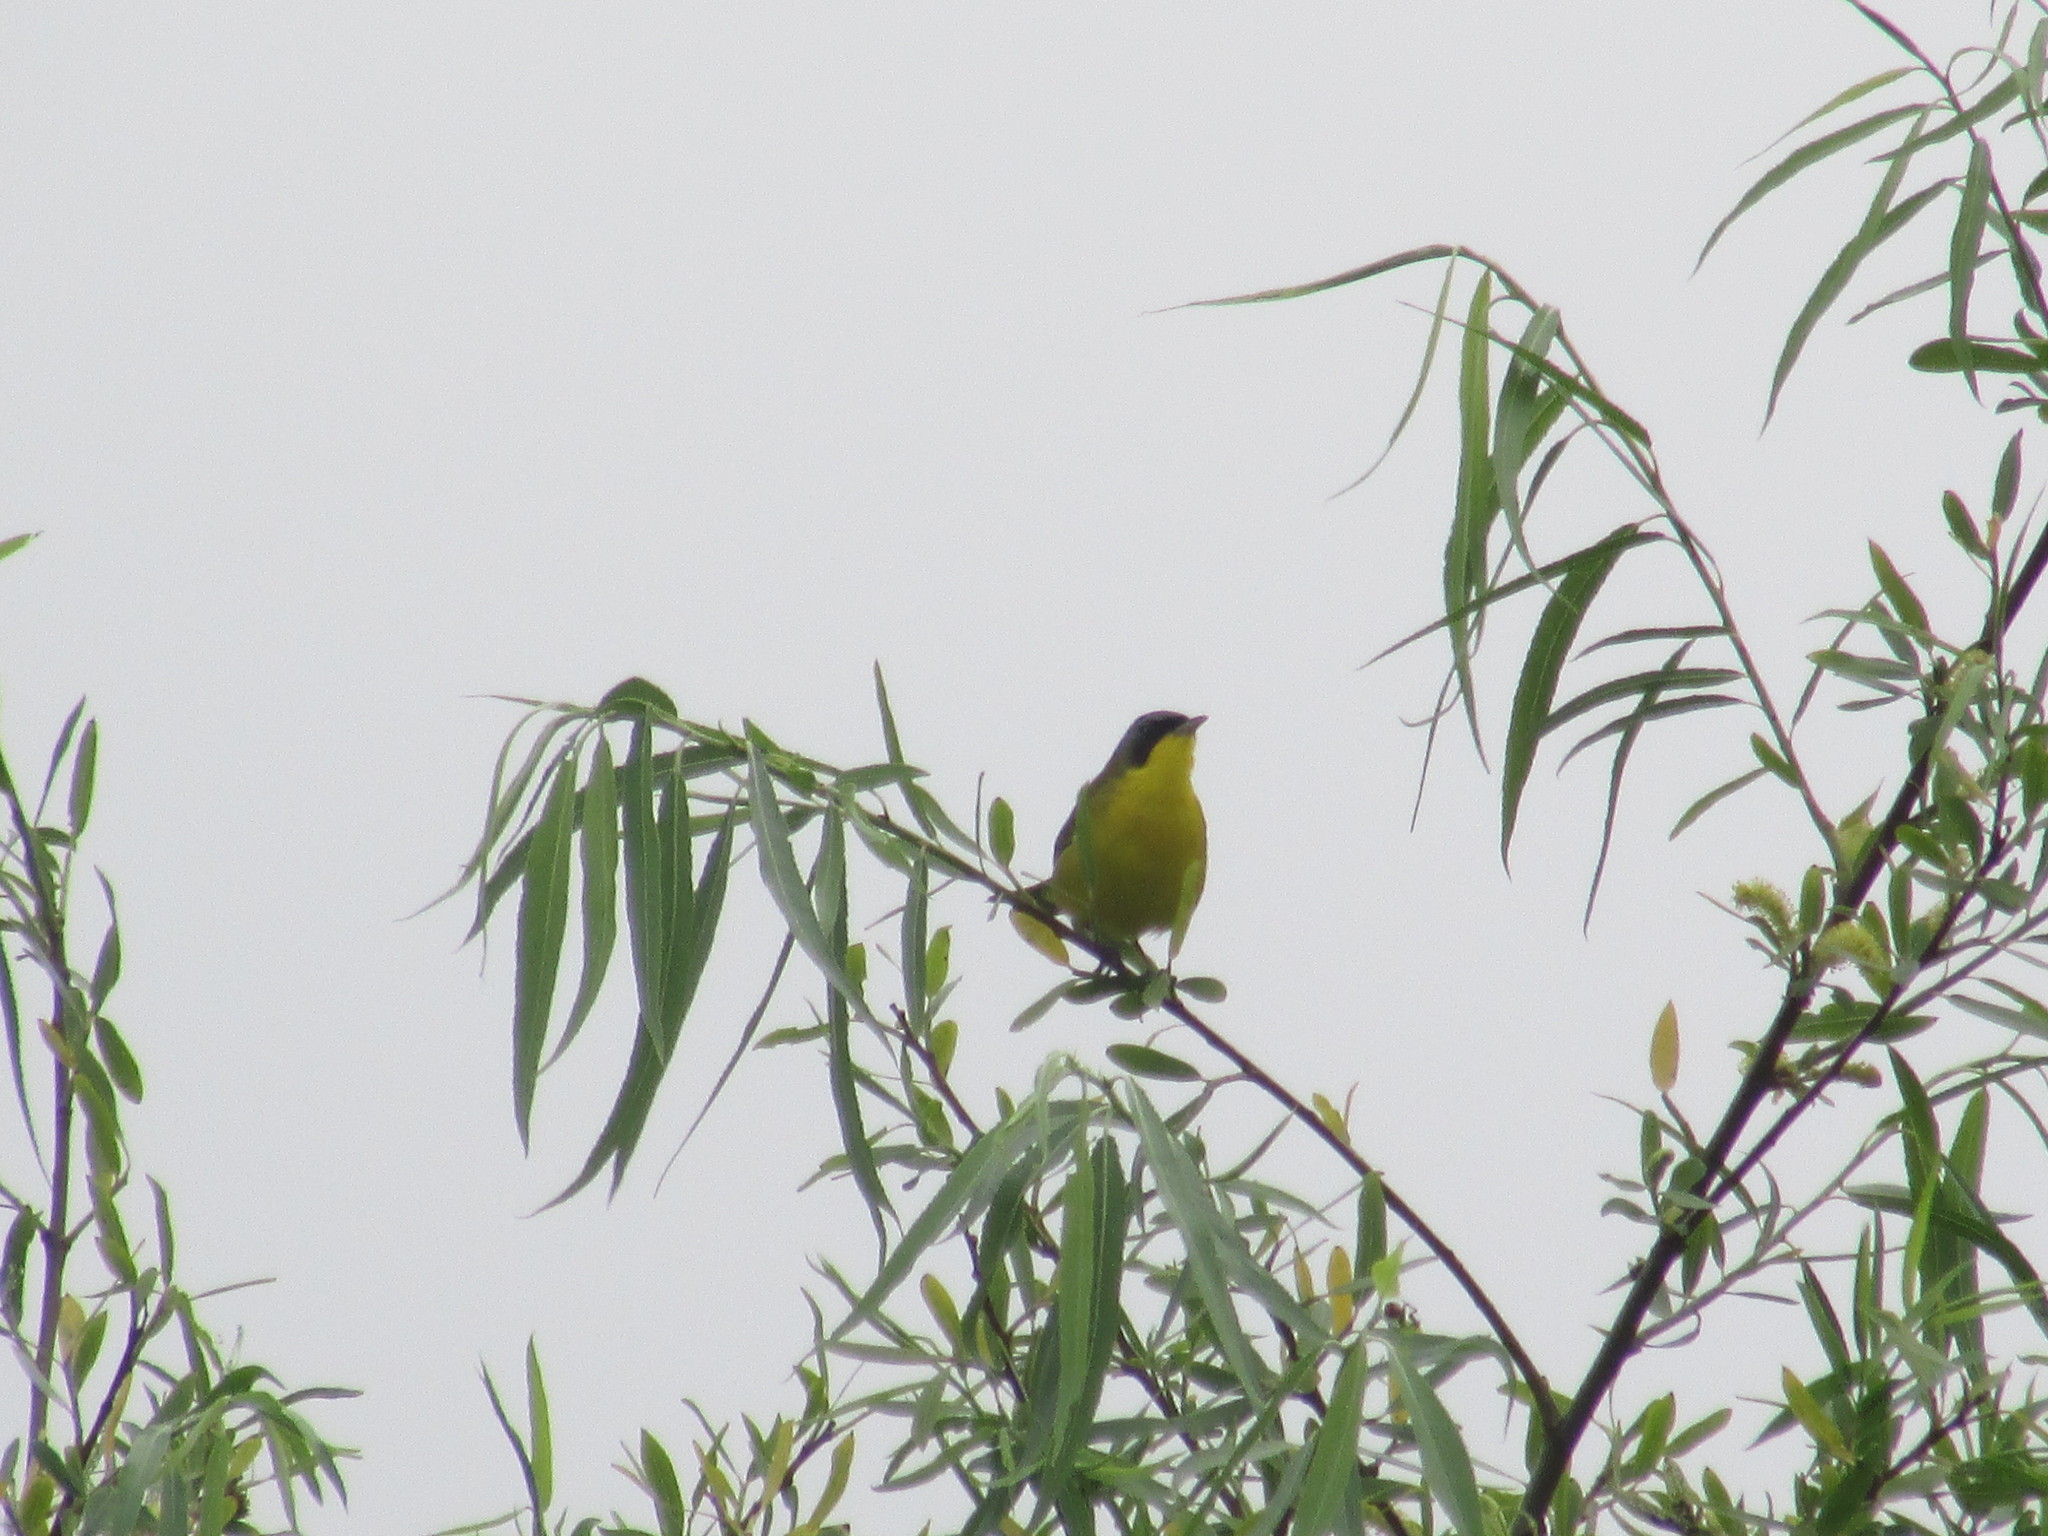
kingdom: Animalia
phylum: Chordata
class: Aves
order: Passeriformes
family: Parulidae
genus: Geothlypis
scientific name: Geothlypis velata
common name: Southern yellowthroat
